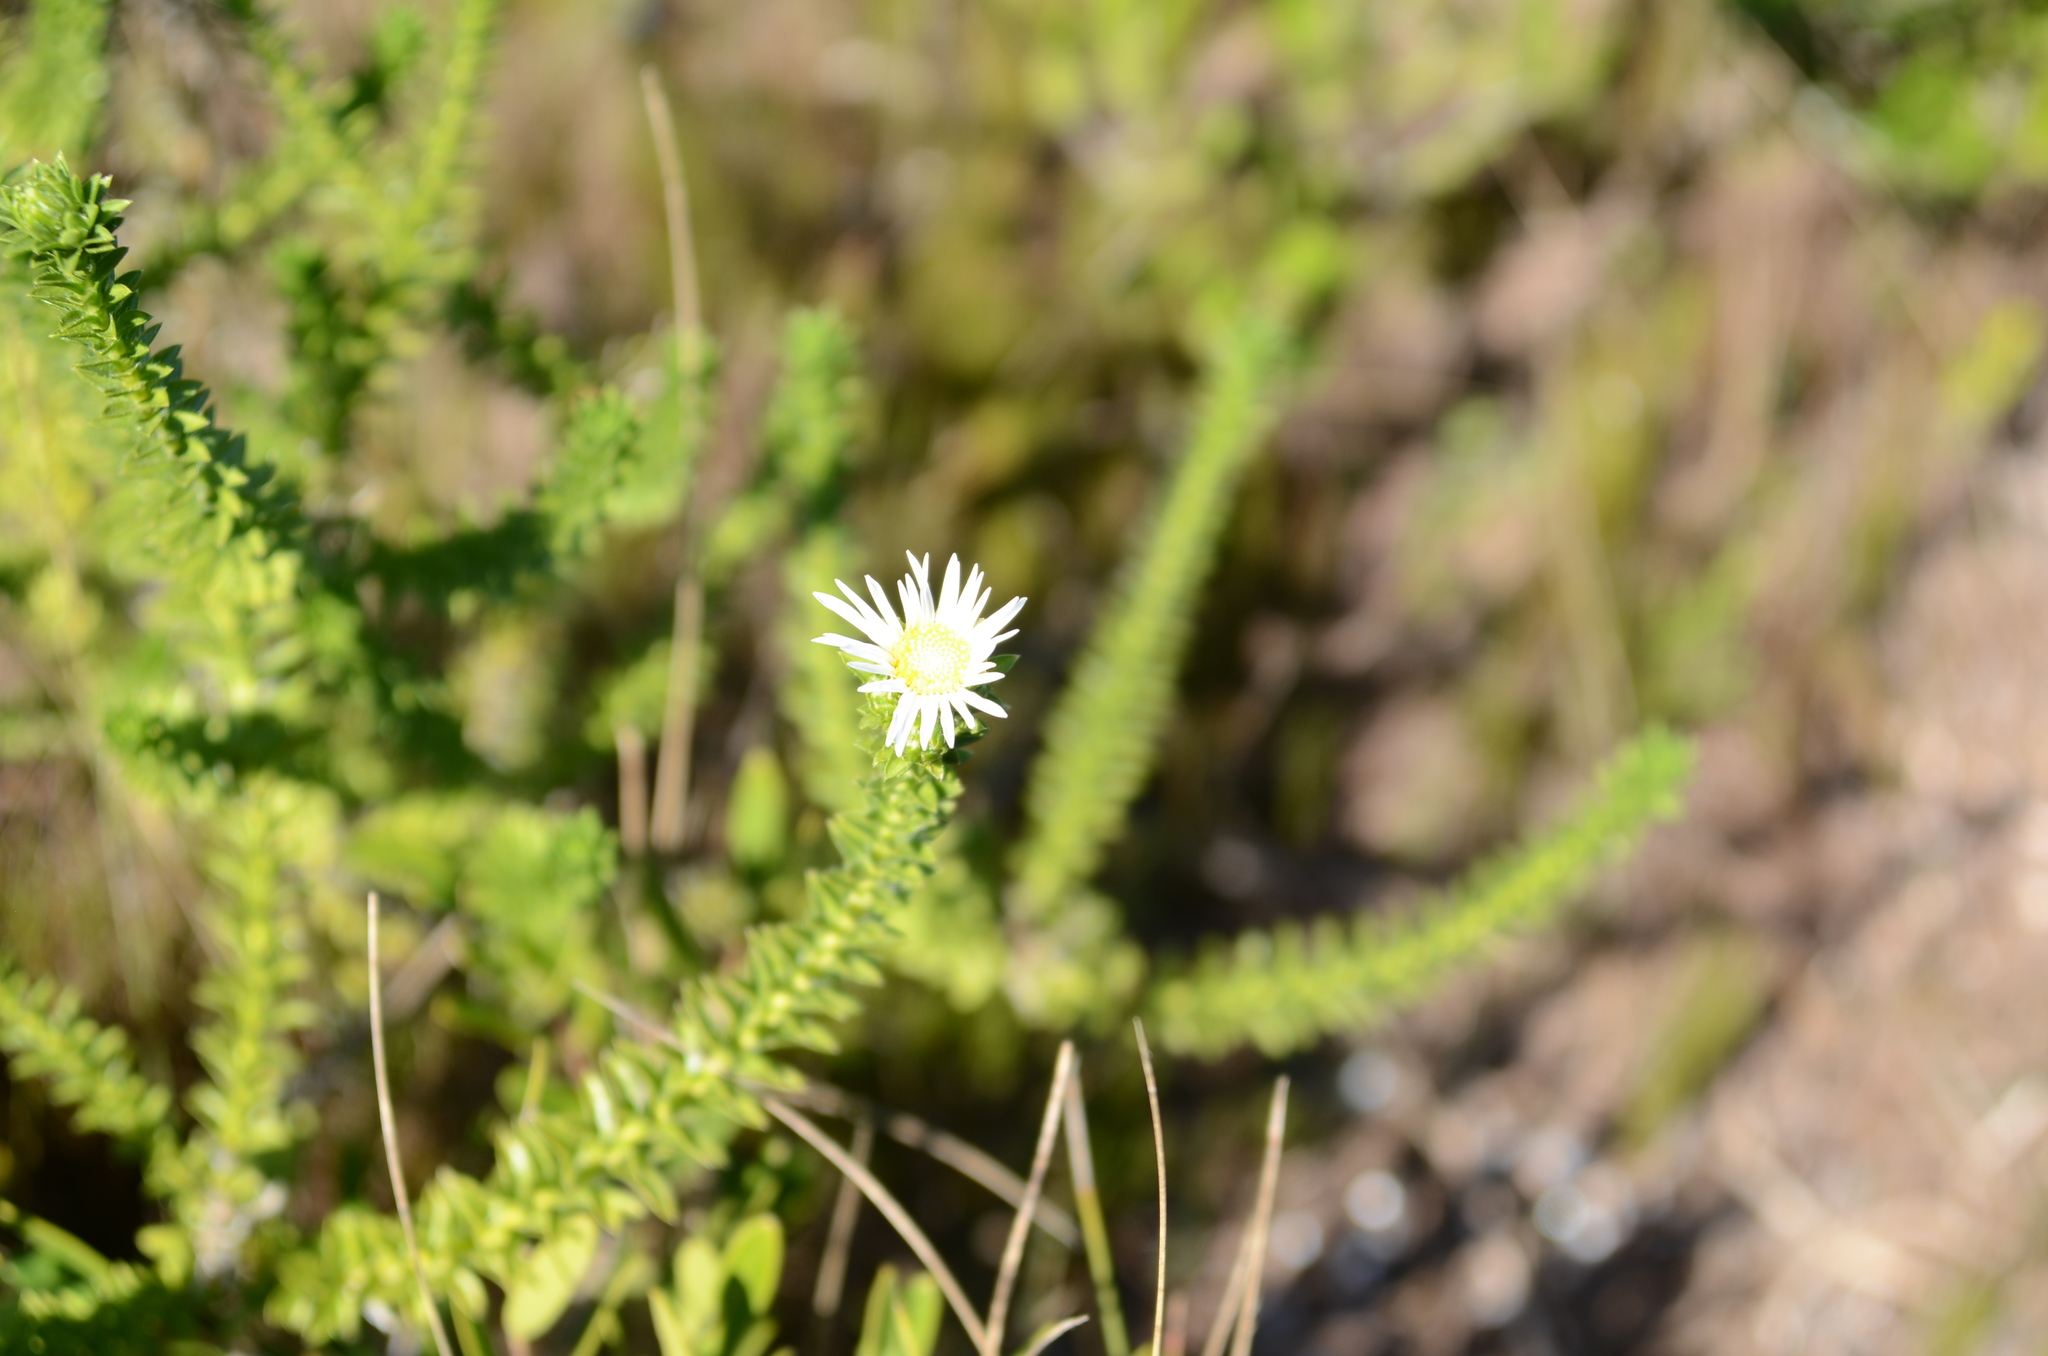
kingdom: Plantae
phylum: Tracheophyta
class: Magnoliopsida
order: Asterales
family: Asteraceae
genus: Felicia
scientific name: Felicia echinata
